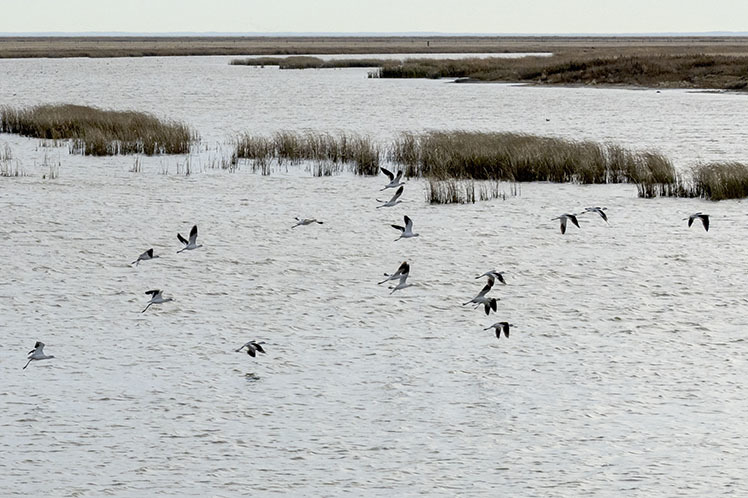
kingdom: Animalia
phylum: Chordata
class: Aves
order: Charadriiformes
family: Recurvirostridae
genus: Recurvirostra
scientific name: Recurvirostra americana
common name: American avocet
